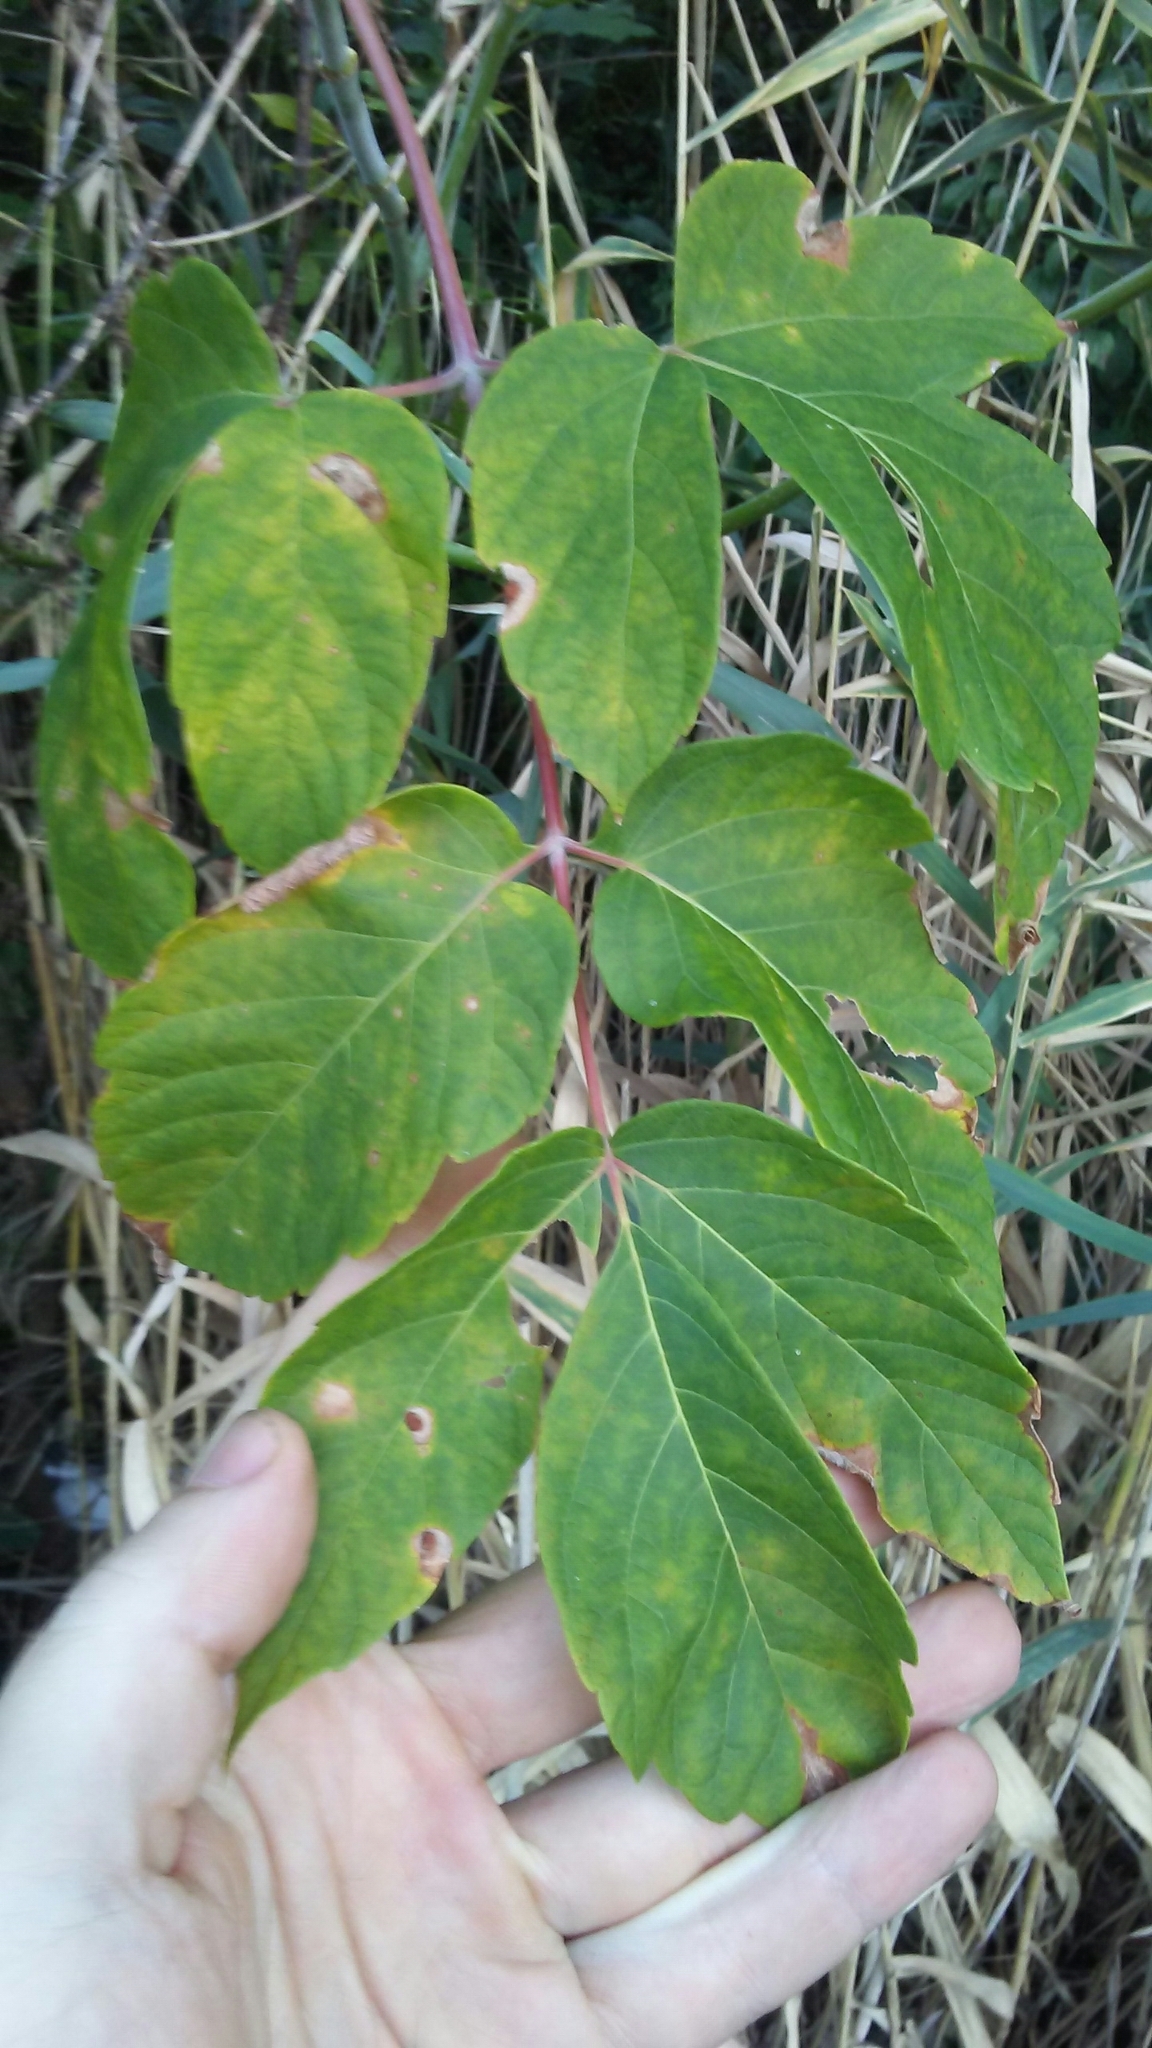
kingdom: Plantae
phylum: Tracheophyta
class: Magnoliopsida
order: Sapindales
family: Sapindaceae
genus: Acer
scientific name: Acer negundo
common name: Ashleaf maple
